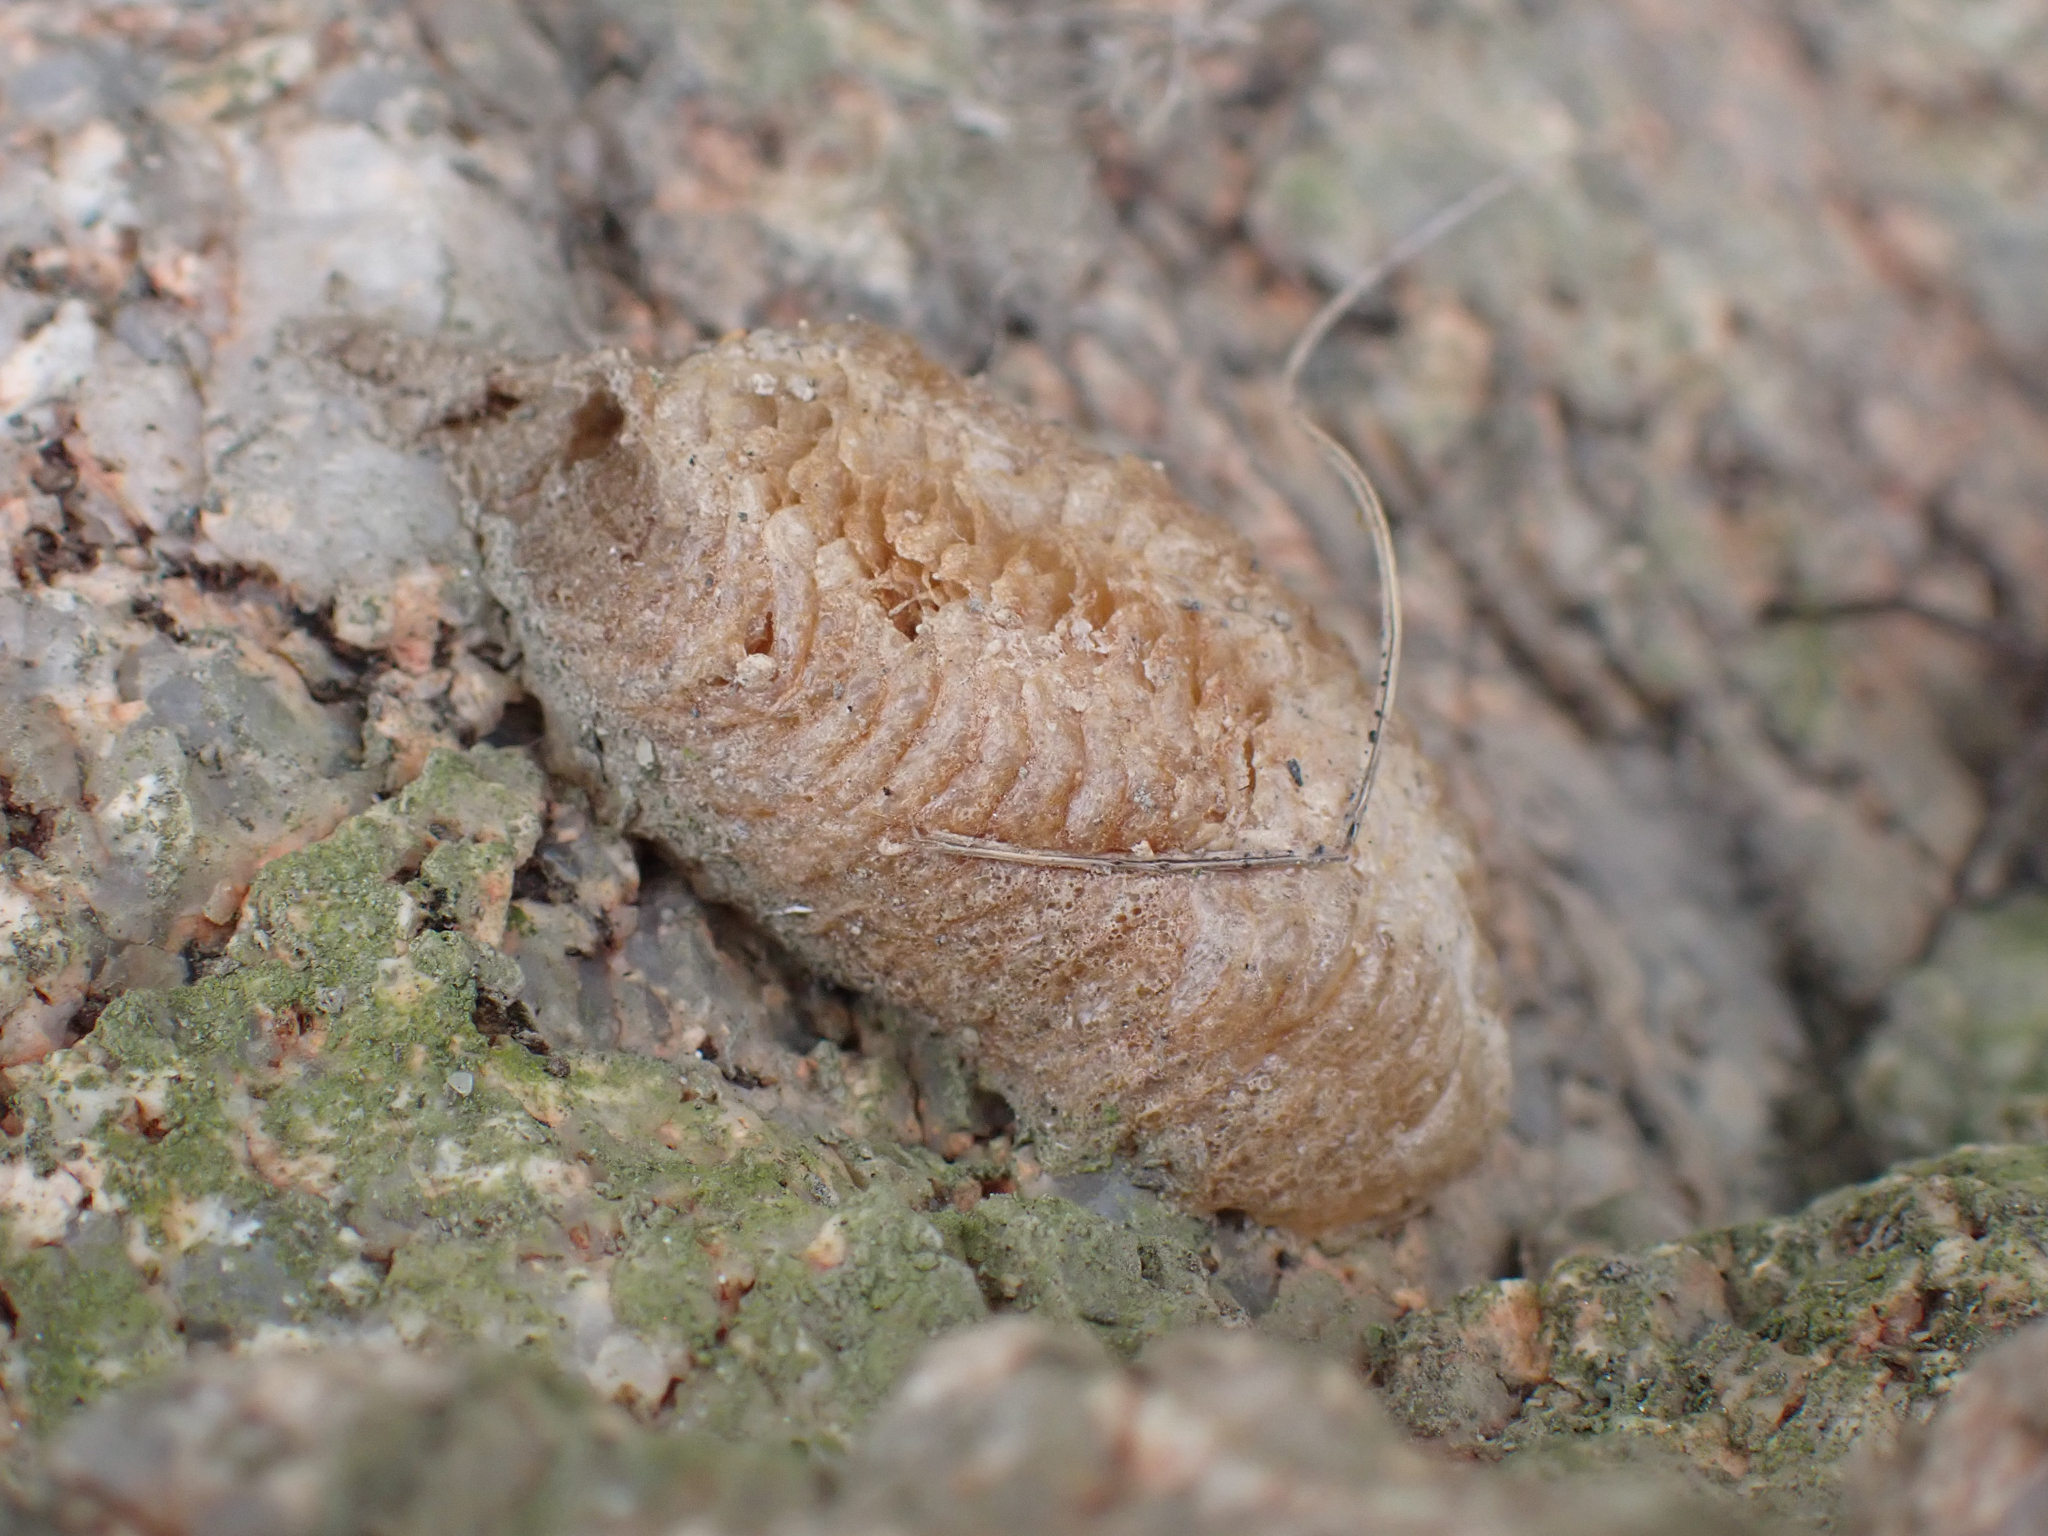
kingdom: Animalia
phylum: Arthropoda
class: Insecta
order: Mantodea
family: Mantidae
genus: Mantis
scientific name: Mantis religiosa
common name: Praying mantis
